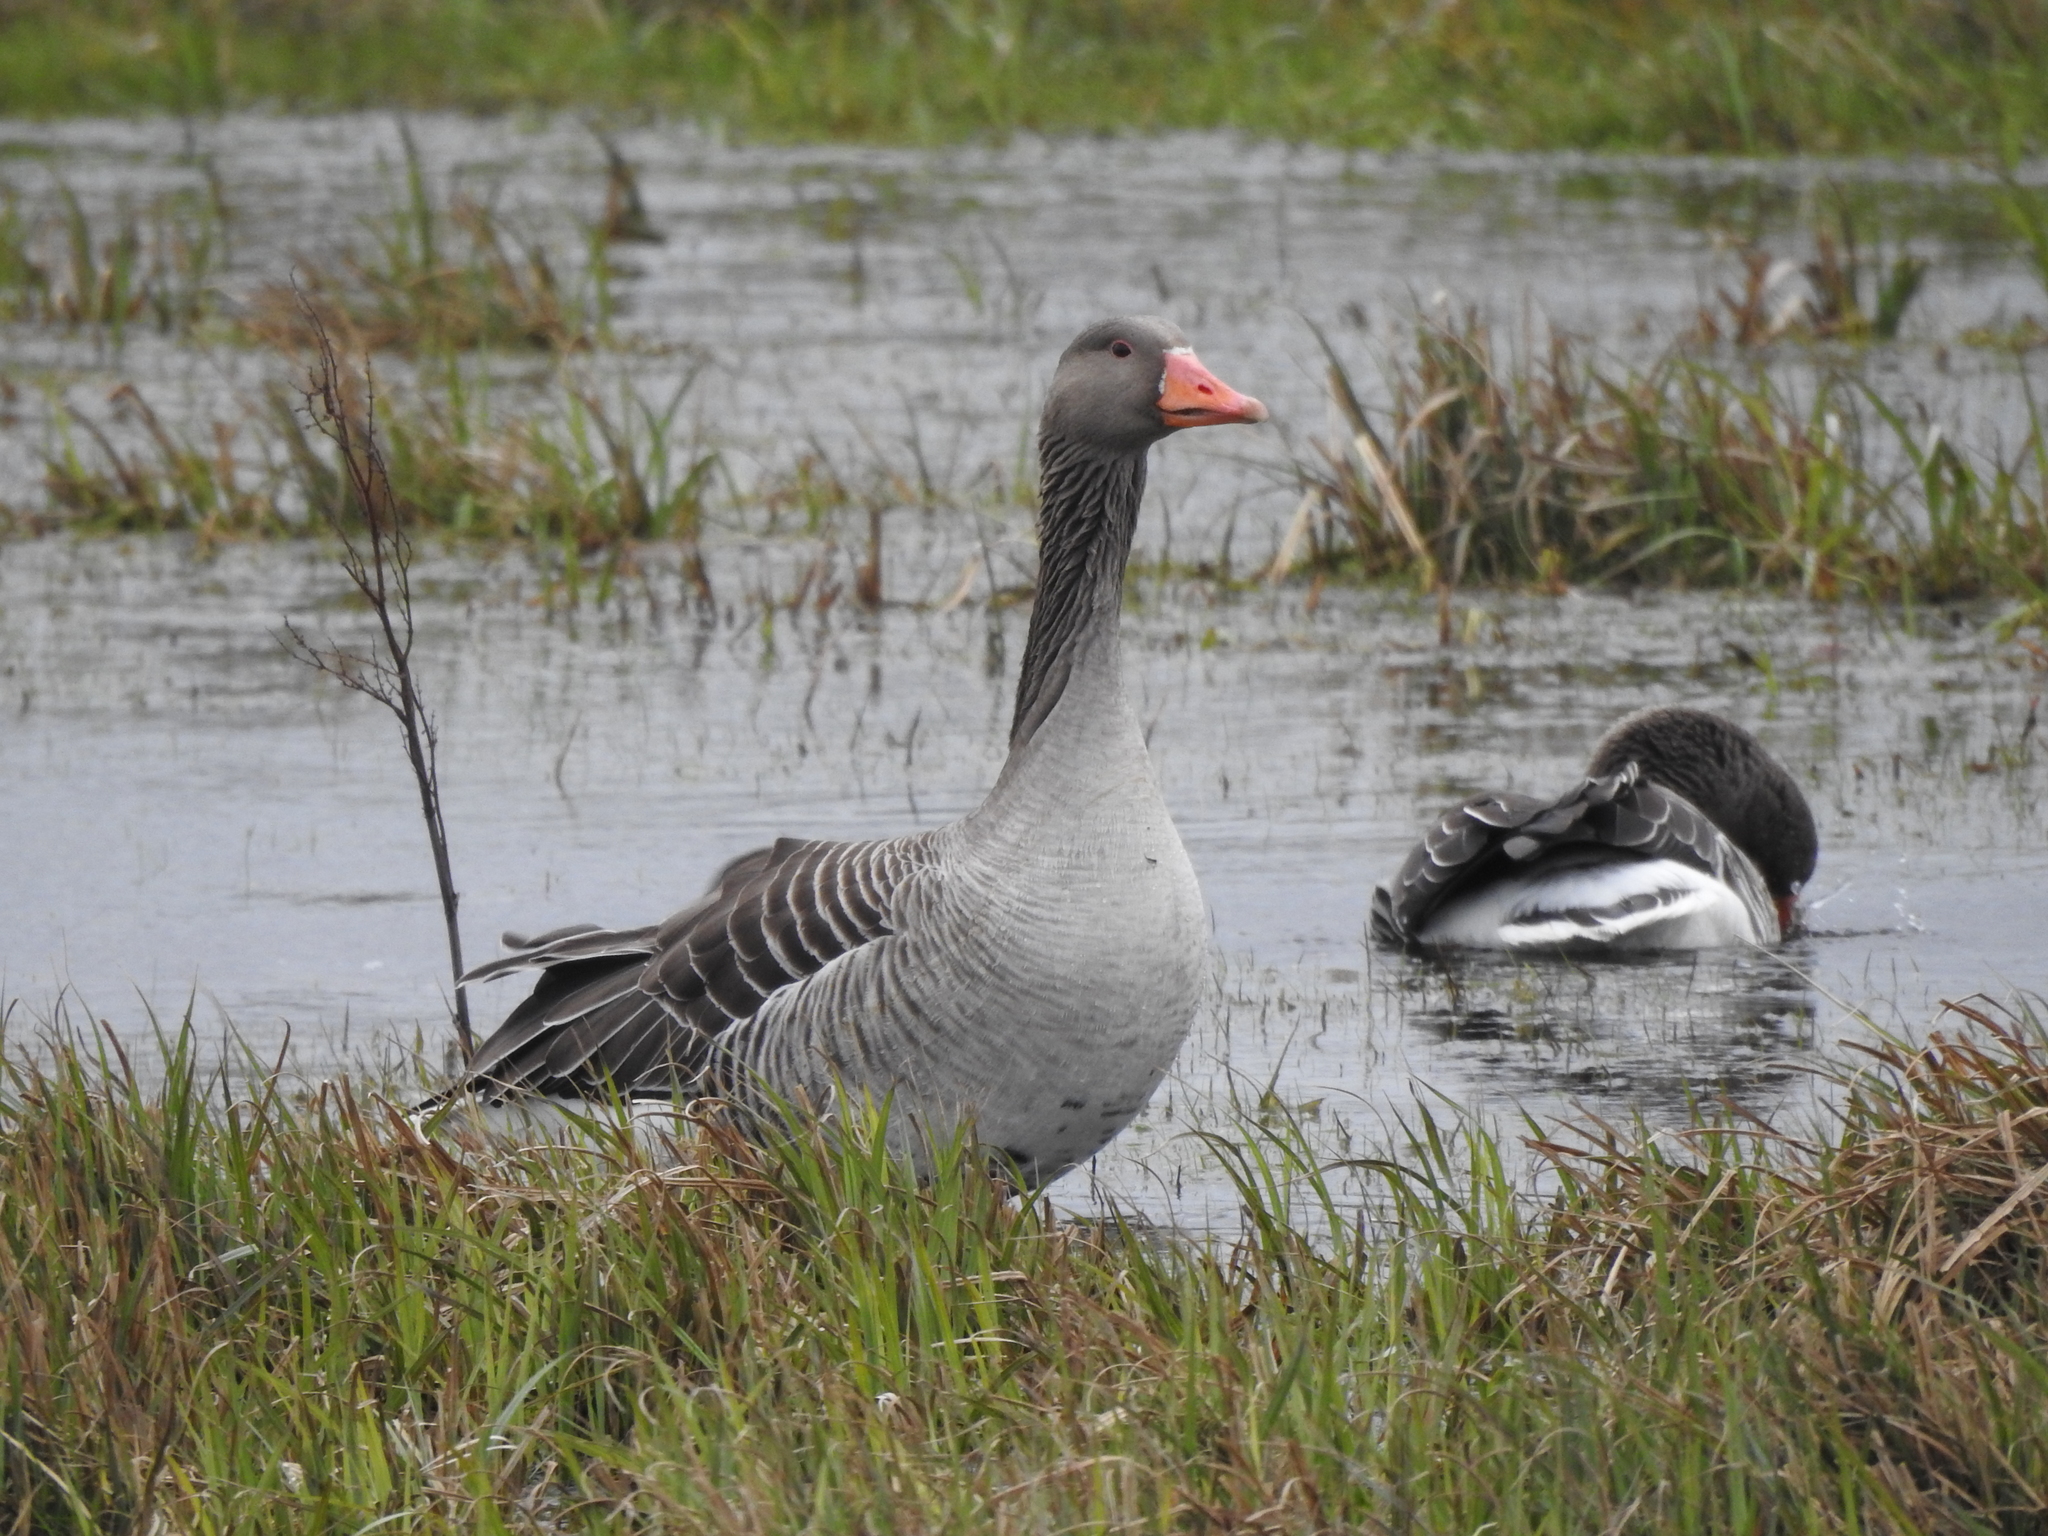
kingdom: Animalia
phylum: Chordata
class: Aves
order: Anseriformes
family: Anatidae
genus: Anser
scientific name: Anser anser
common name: Greylag goose
